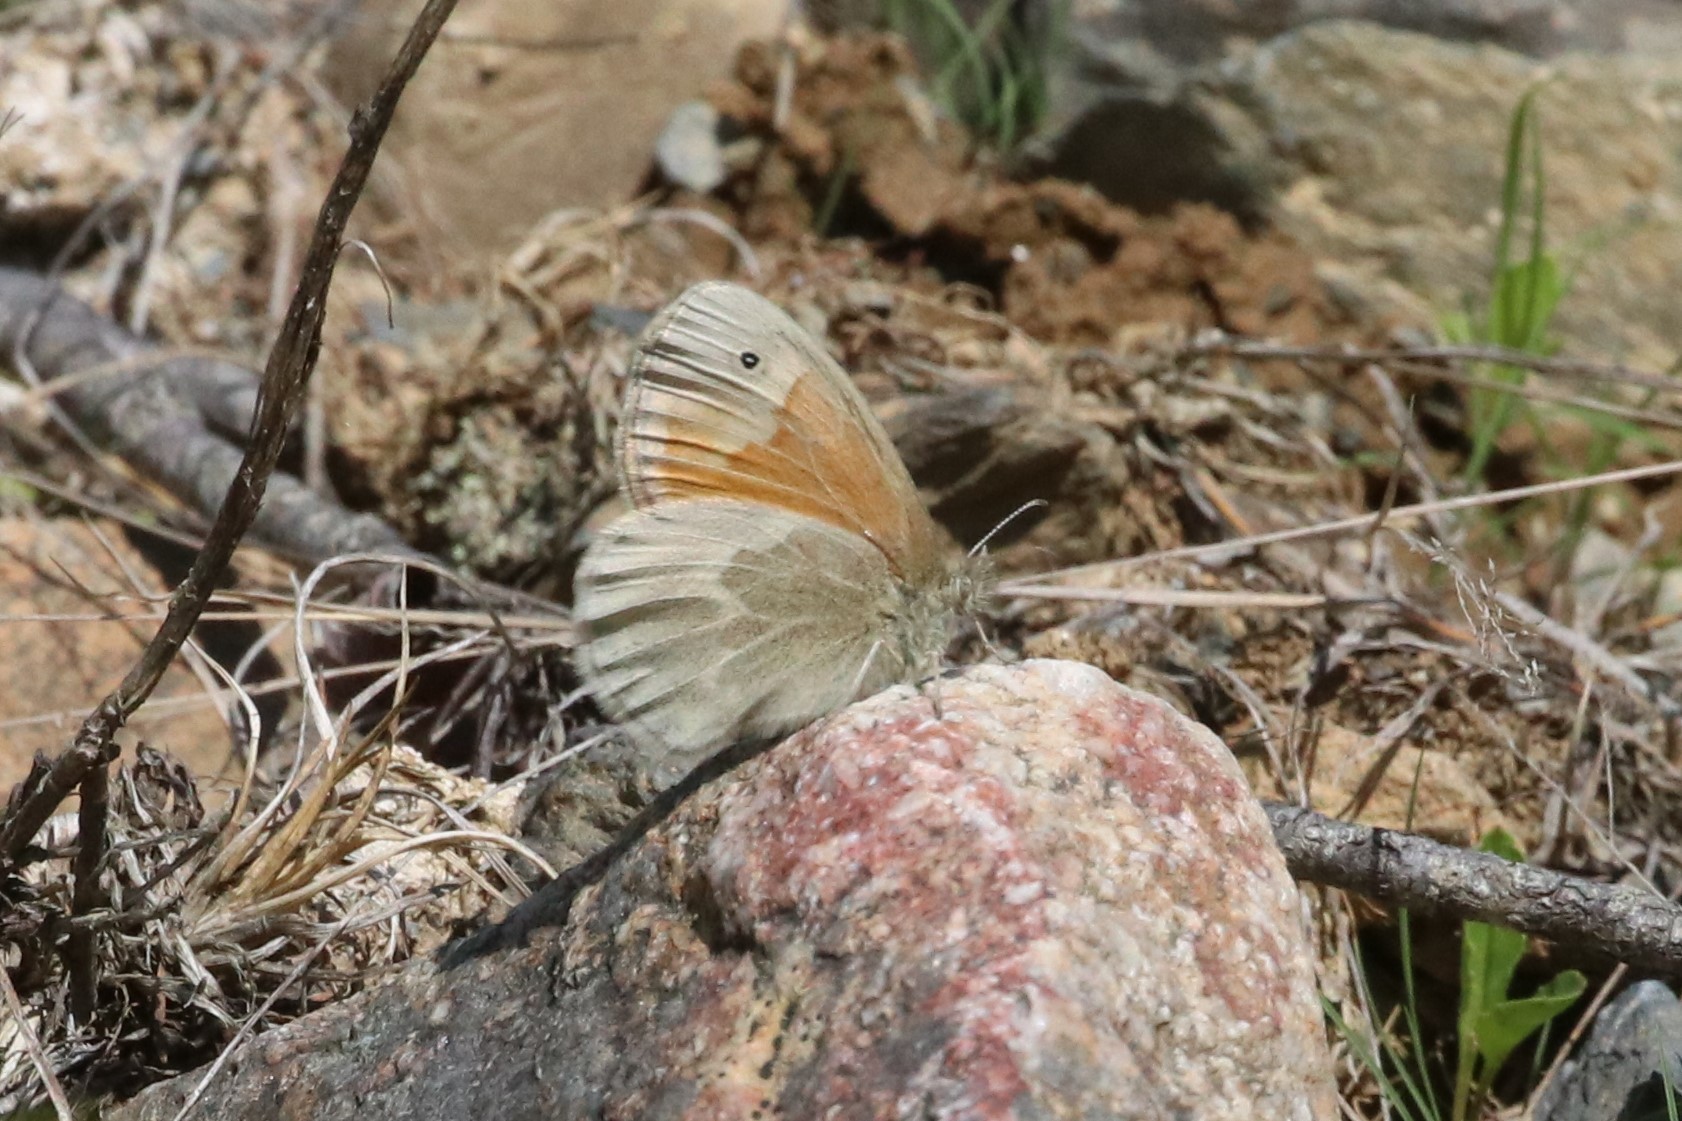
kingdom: Animalia
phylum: Arthropoda
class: Insecta
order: Lepidoptera
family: Nymphalidae
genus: Coenonympha
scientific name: Coenonympha california
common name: Common ringlet
